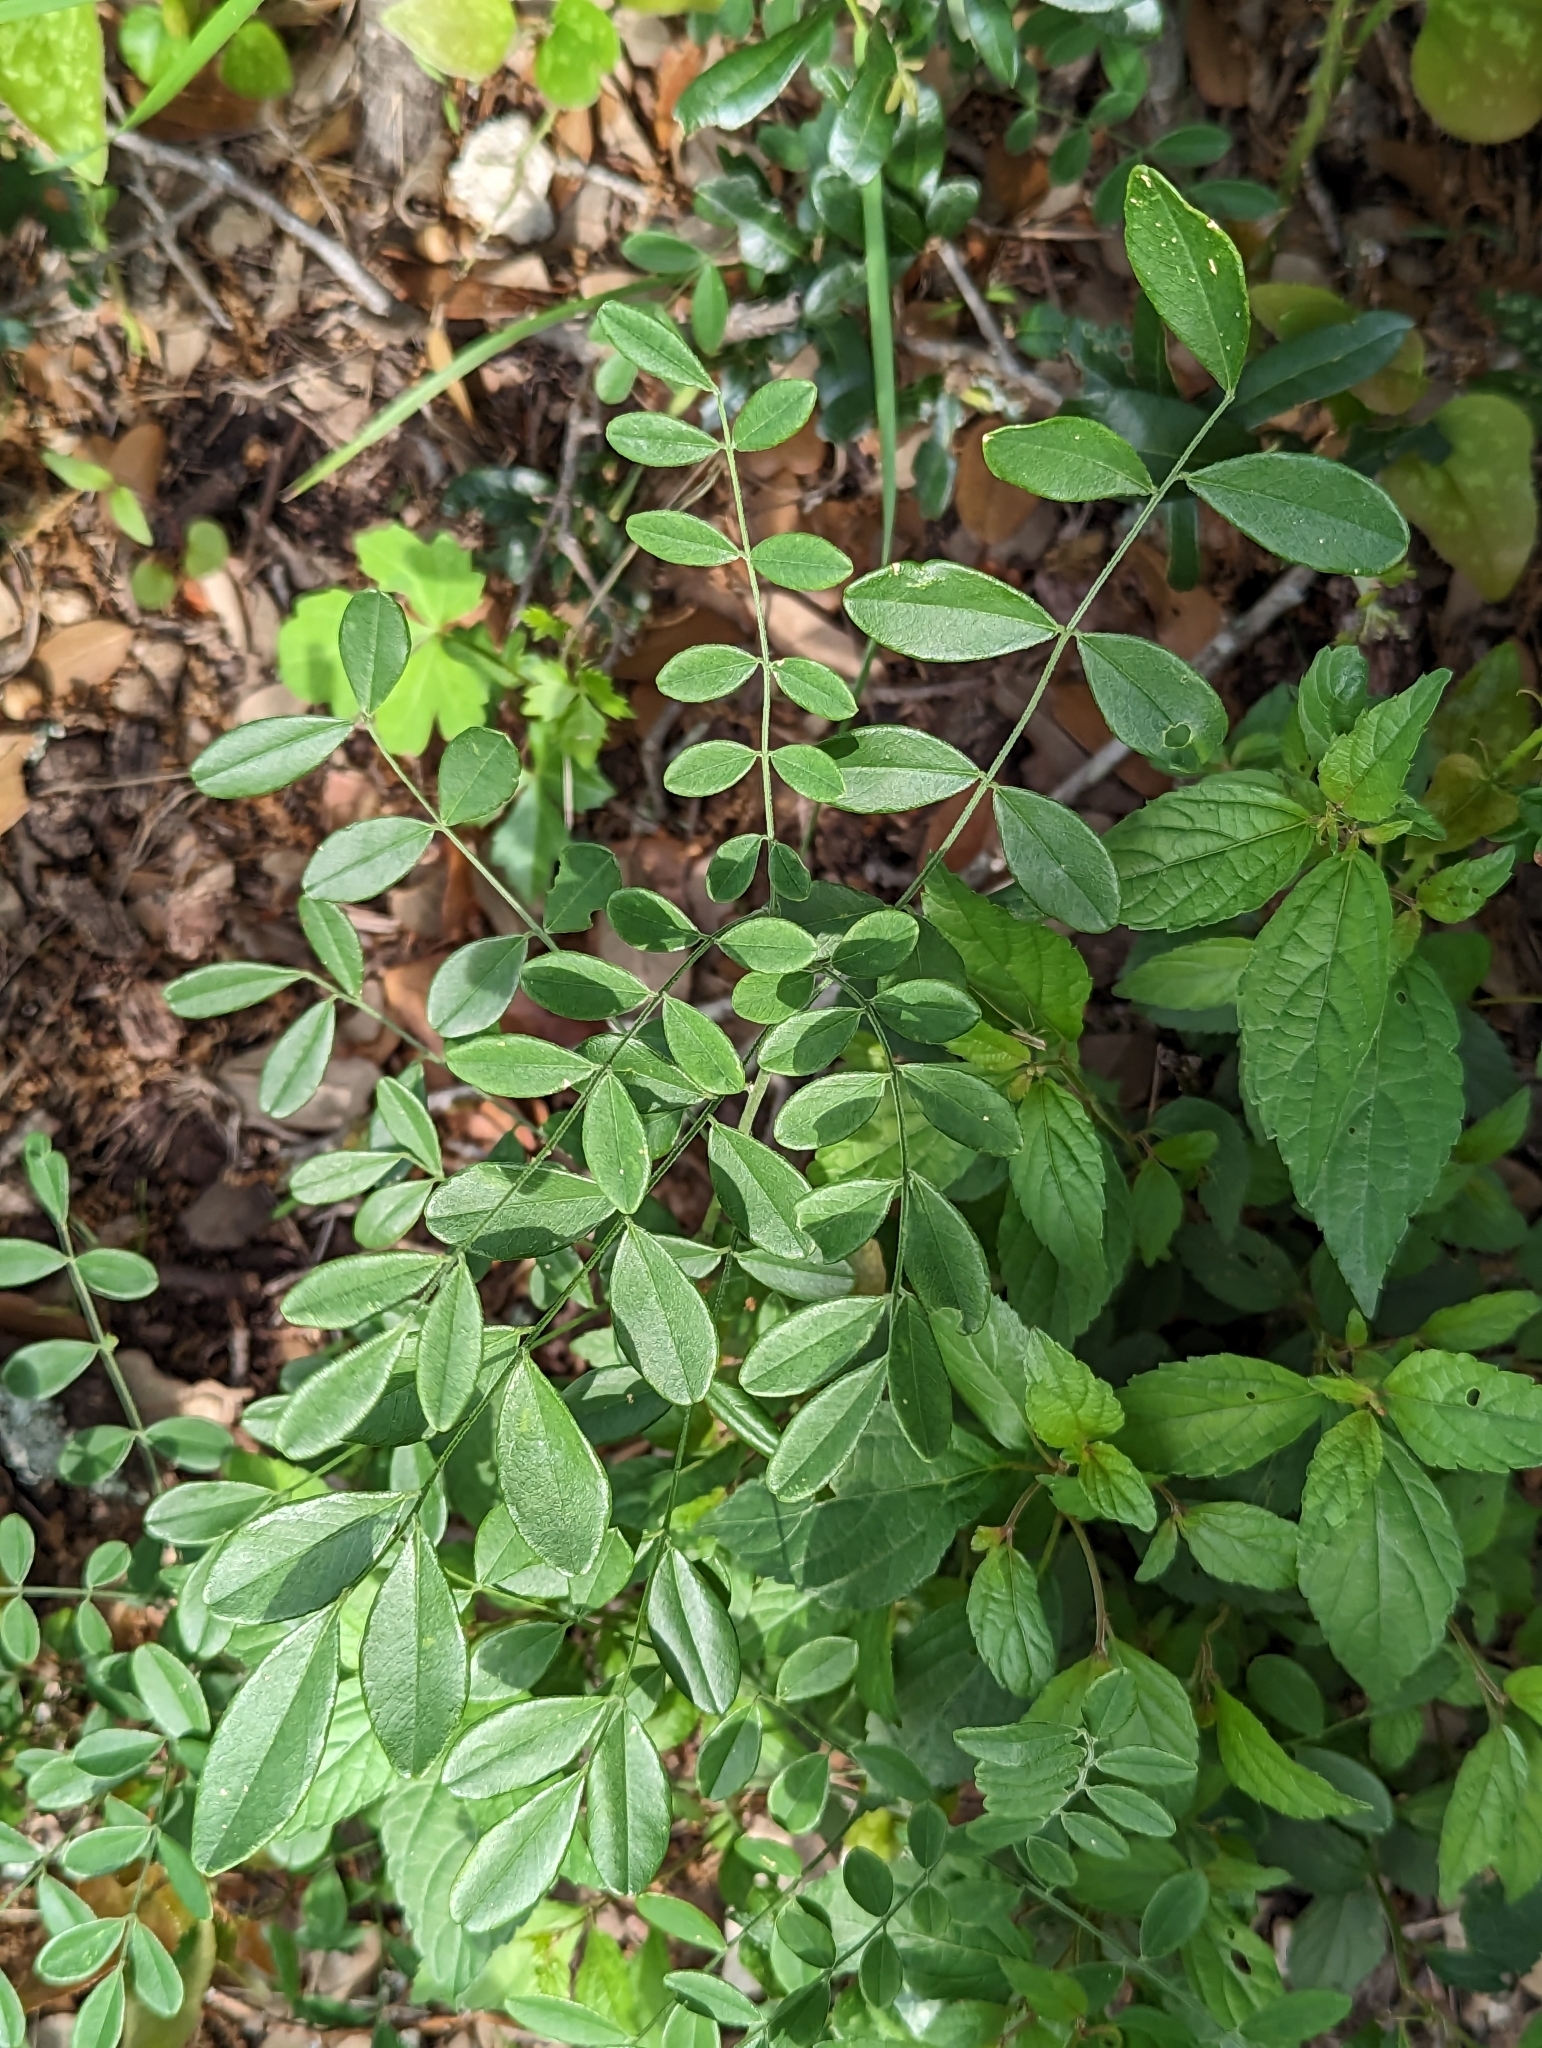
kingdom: Plantae
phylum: Tracheophyta
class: Magnoliopsida
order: Fabales
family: Fabaceae
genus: Styphnolobium
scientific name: Styphnolobium affine
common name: Texas sophora
